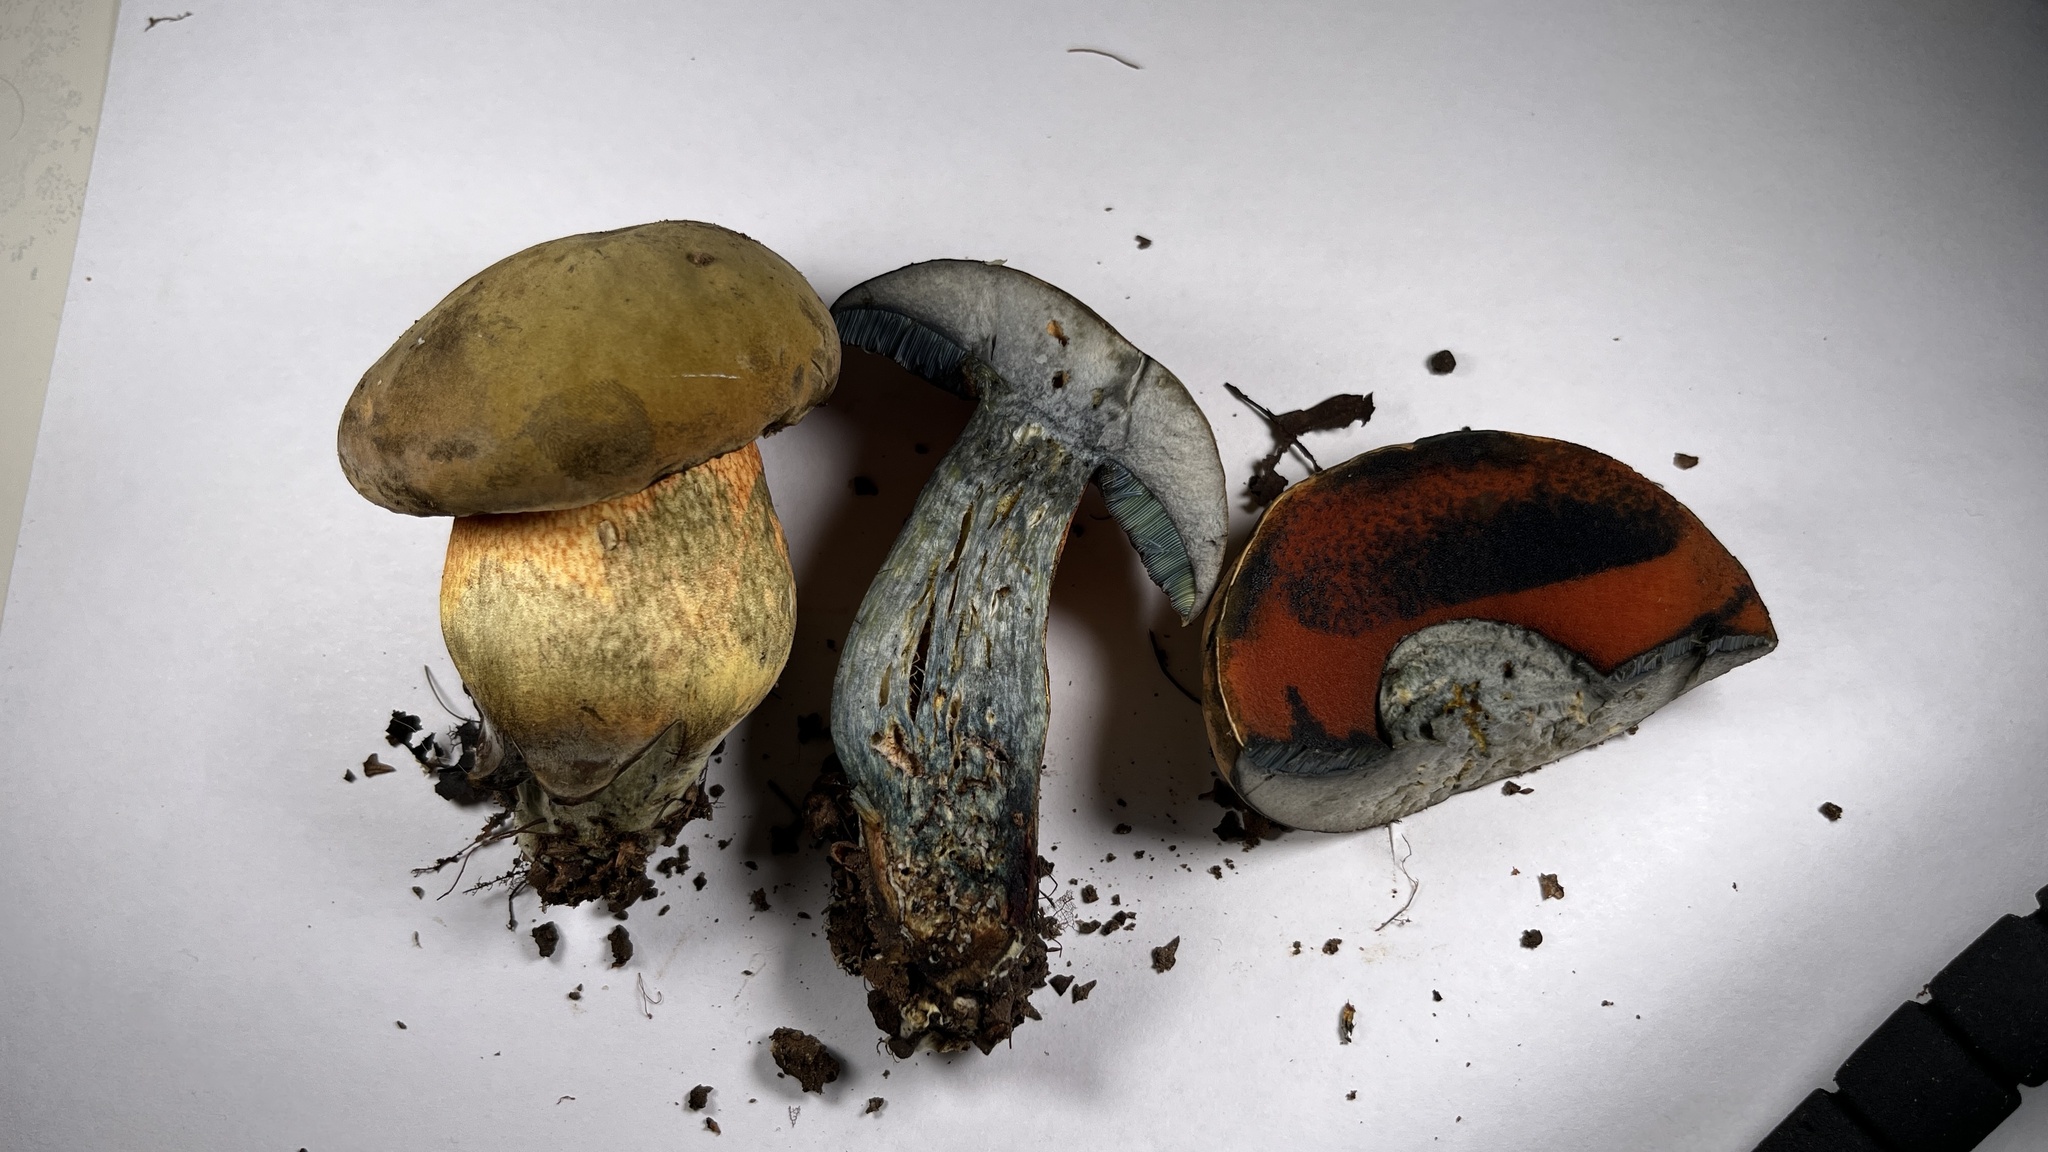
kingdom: Fungi
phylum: Basidiomycota
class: Agaricomycetes
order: Boletales
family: Boletaceae
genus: Suillellus
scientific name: Suillellus luridus
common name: Lurid bolete
